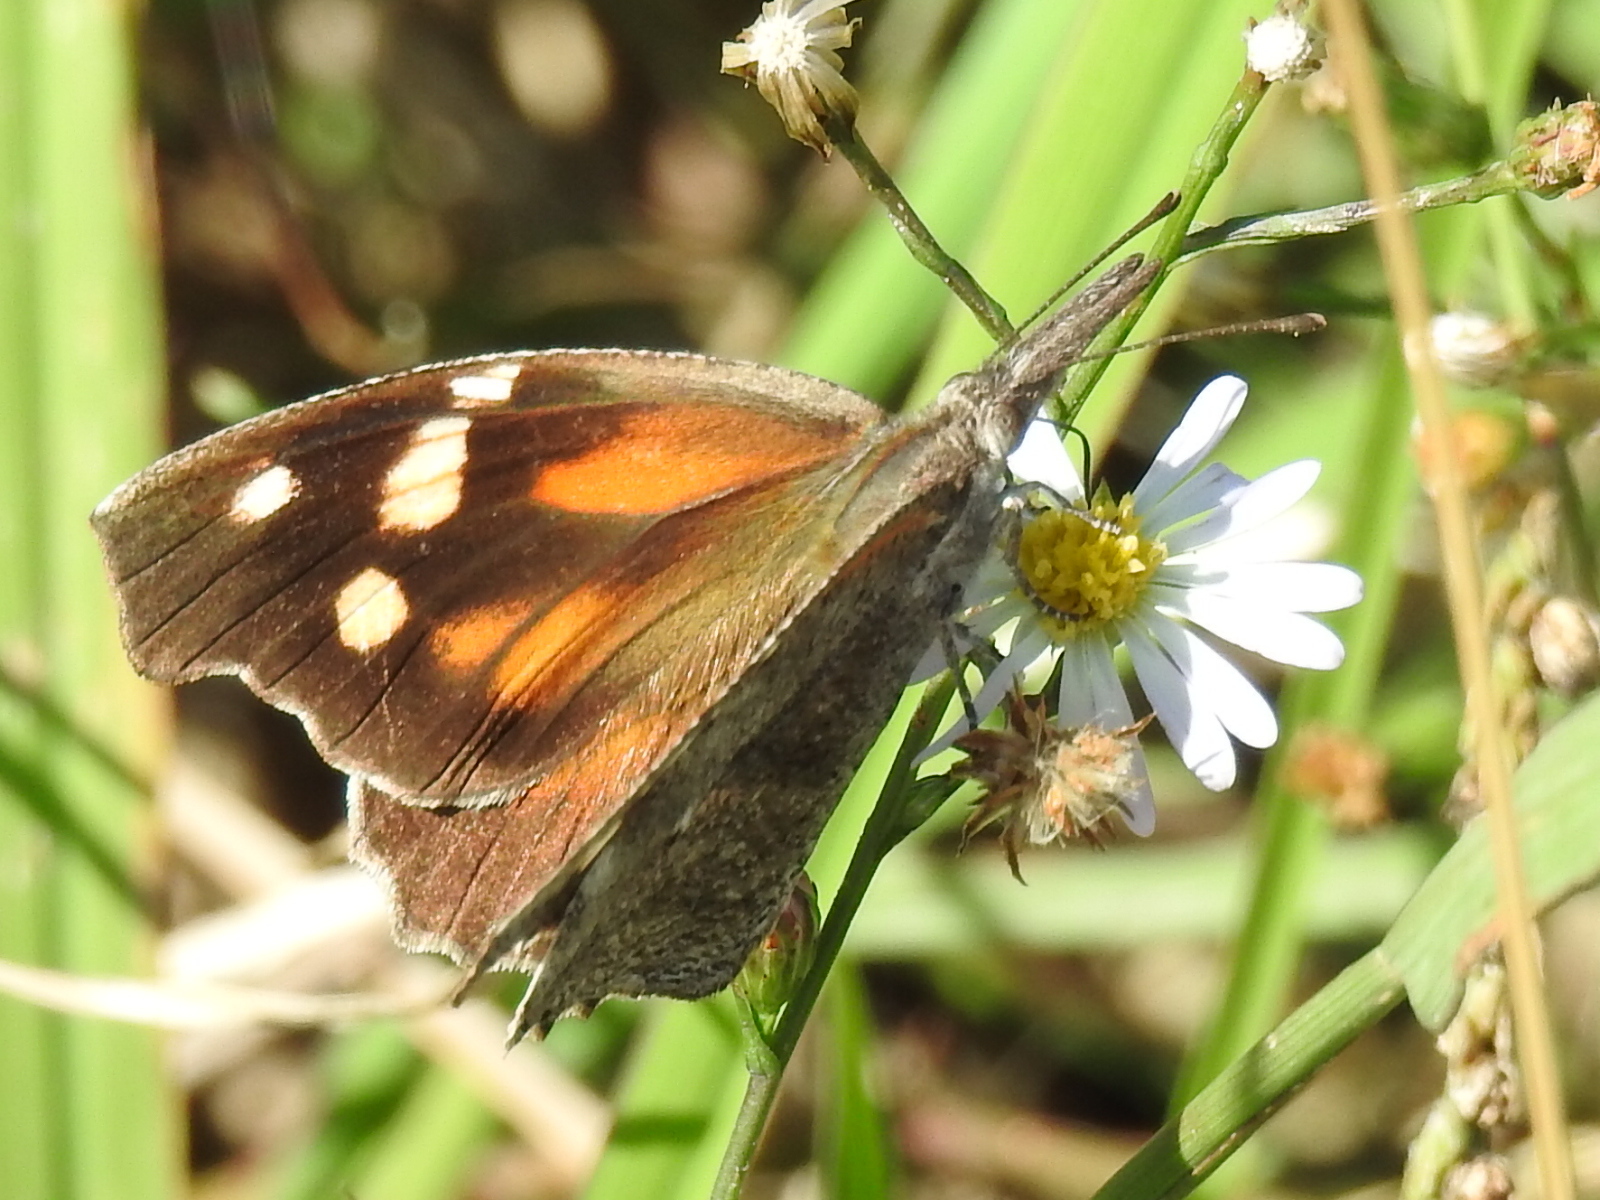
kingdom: Animalia
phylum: Arthropoda
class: Insecta
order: Lepidoptera
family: Nymphalidae
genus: Libytheana
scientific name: Libytheana carinenta
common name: American snout
